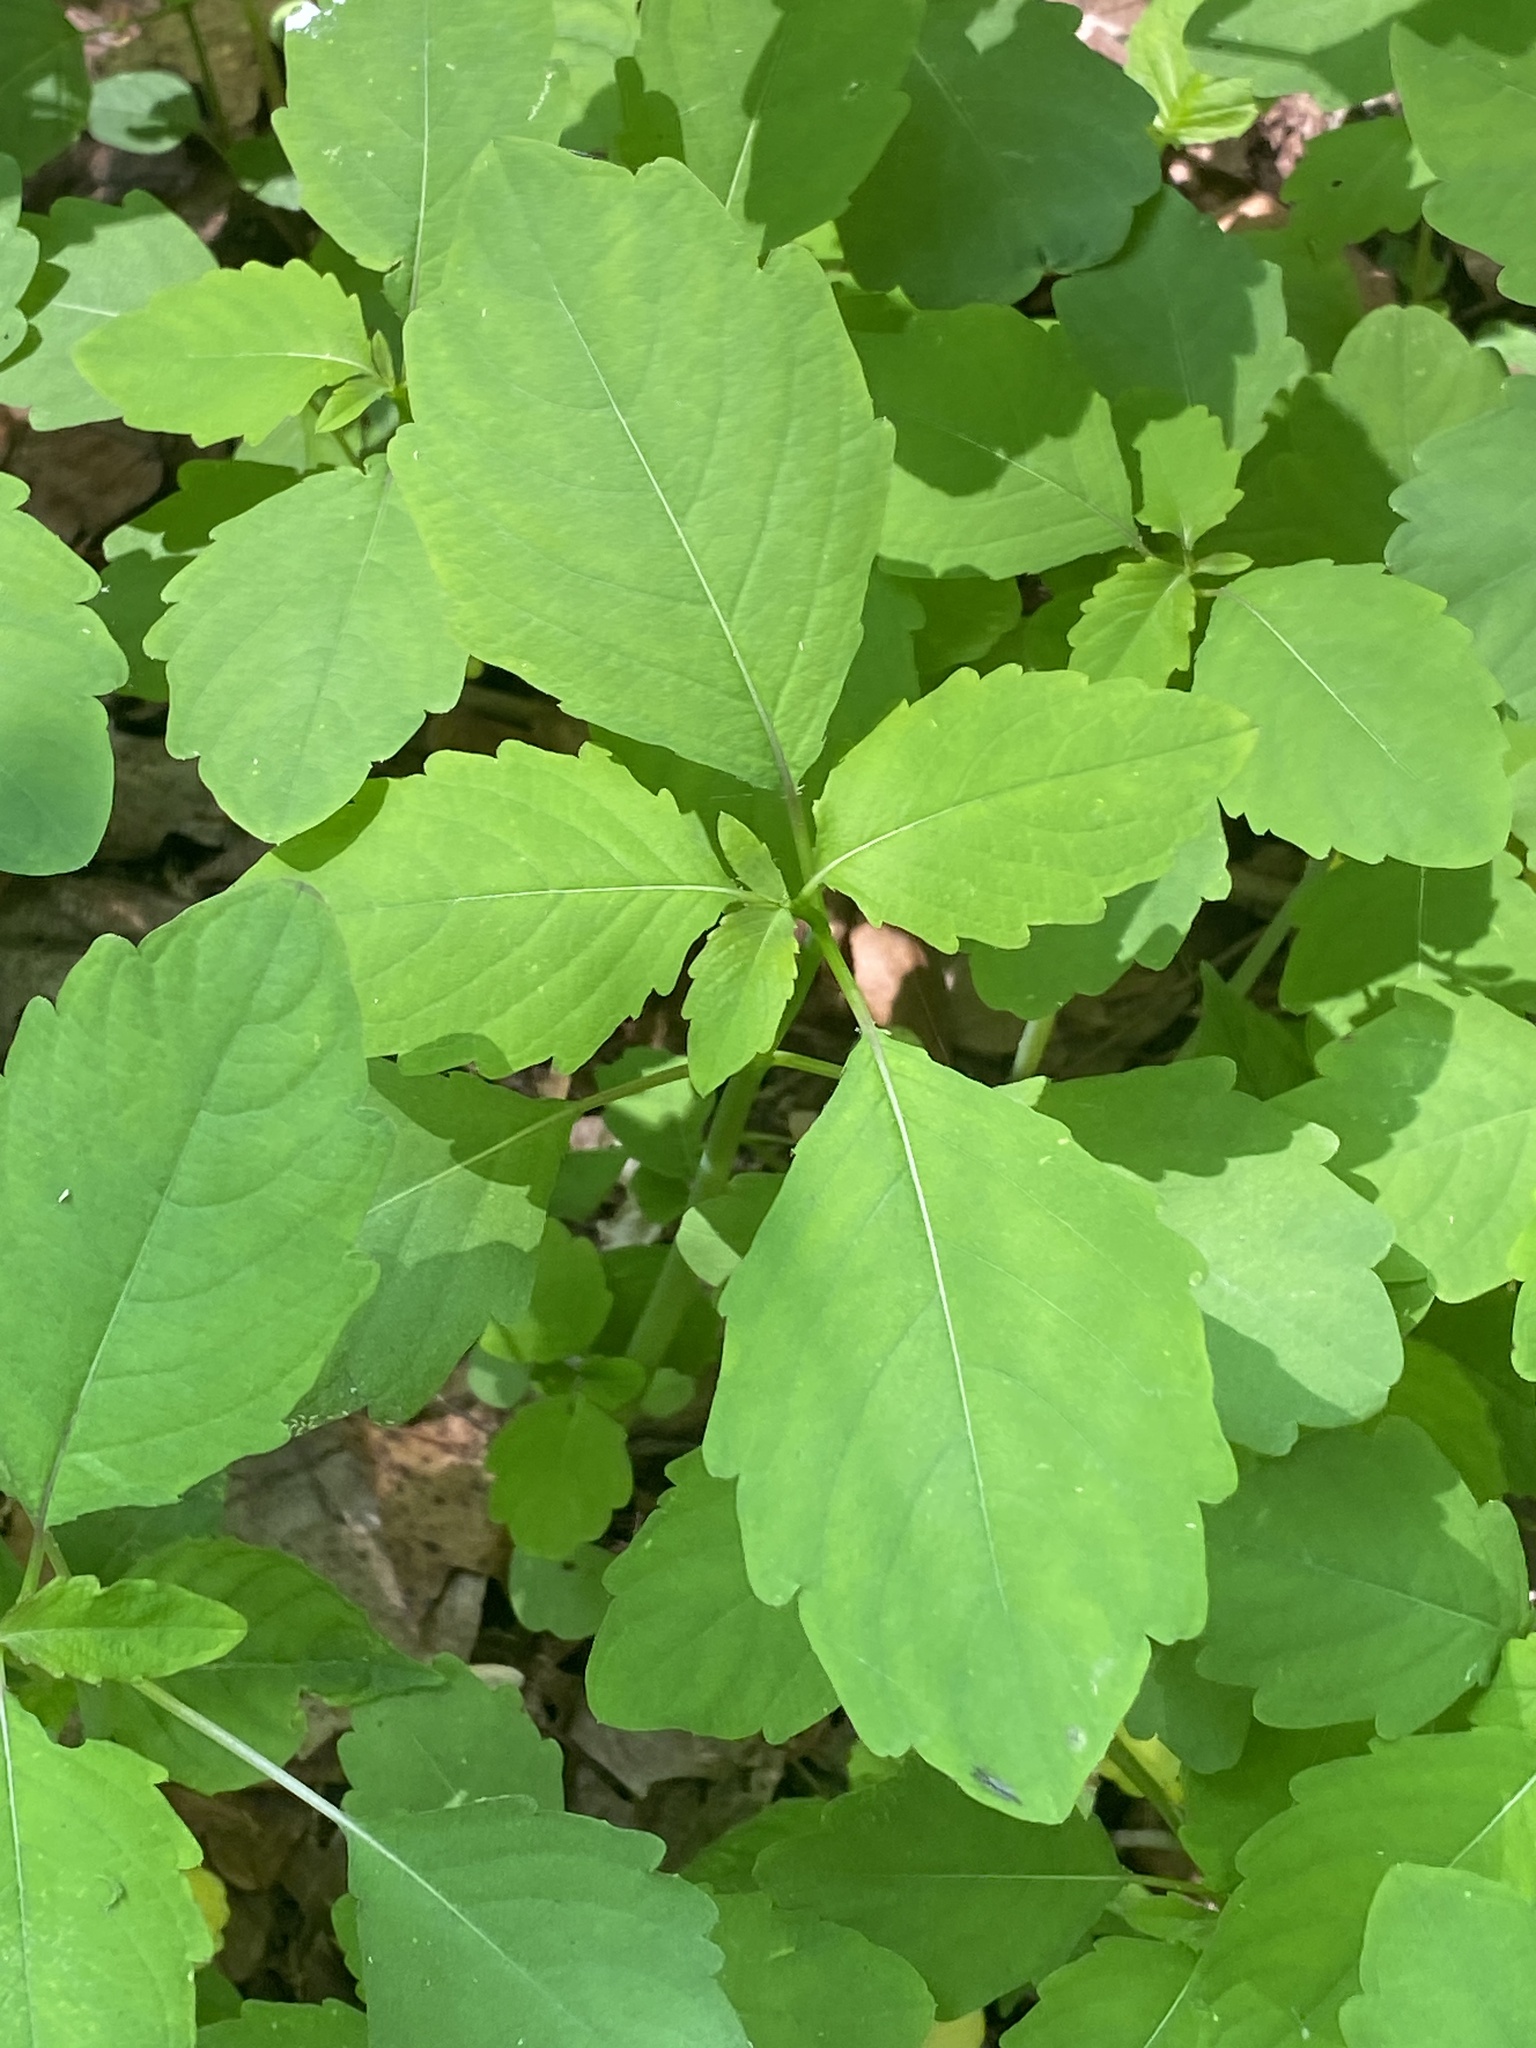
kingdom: Plantae
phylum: Tracheophyta
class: Magnoliopsida
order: Ericales
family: Balsaminaceae
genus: Impatiens
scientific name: Impatiens
